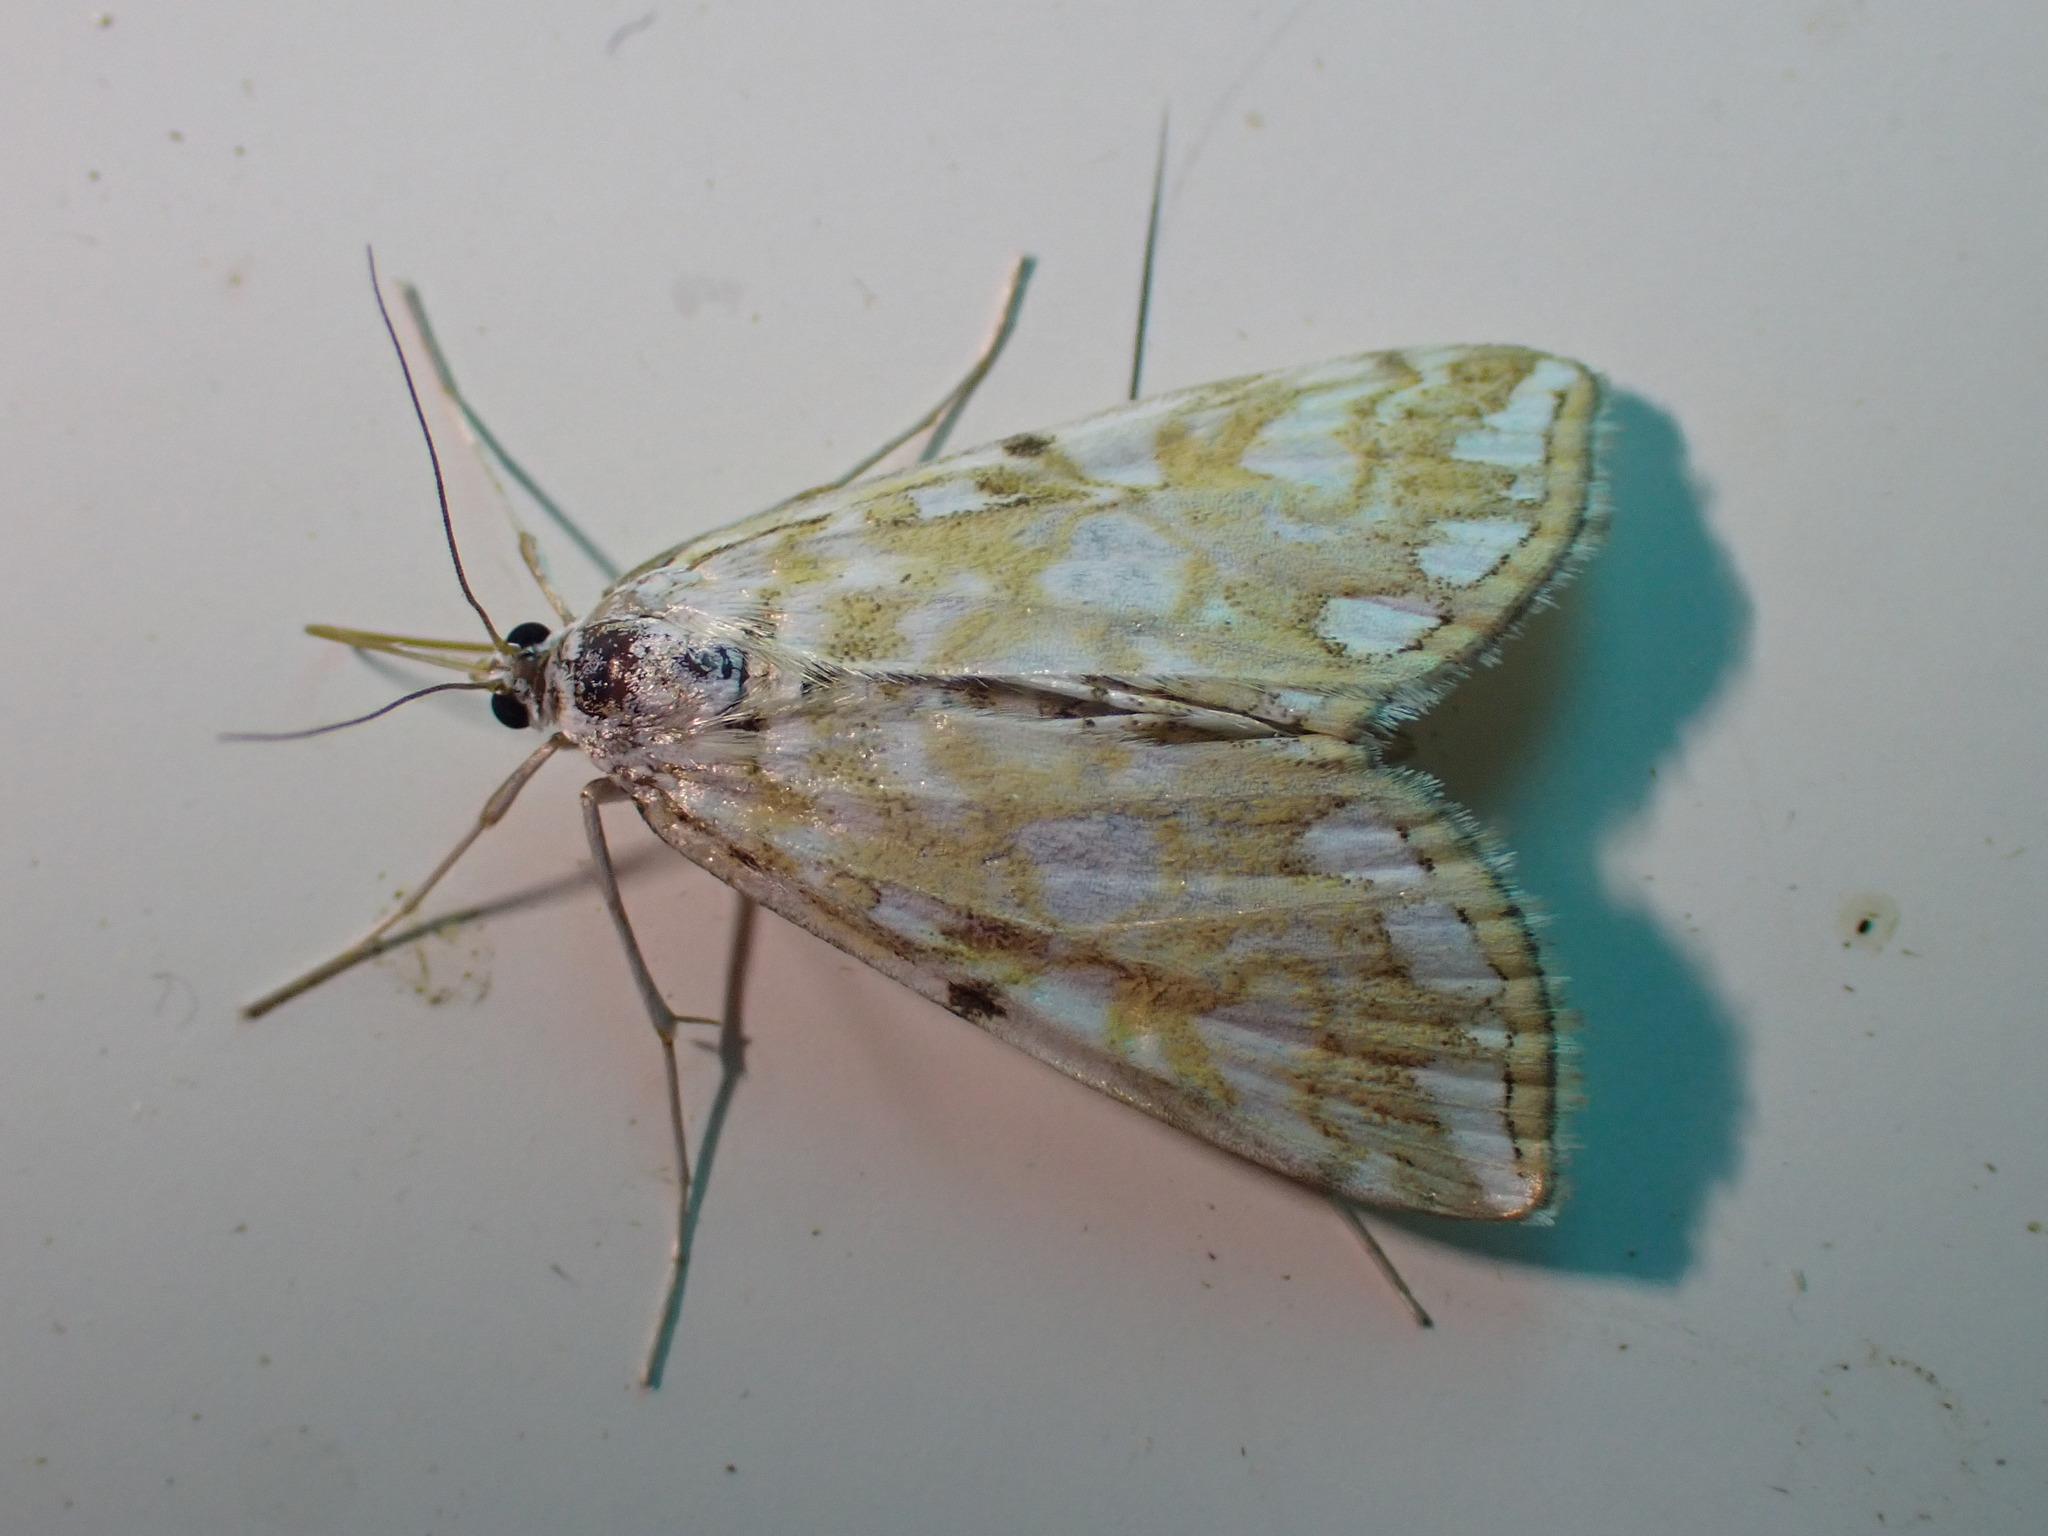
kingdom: Animalia
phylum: Arthropoda
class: Insecta
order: Lepidoptera
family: Crambidae
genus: Elophila
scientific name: Elophila nymphaeata
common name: Brown china-mark
